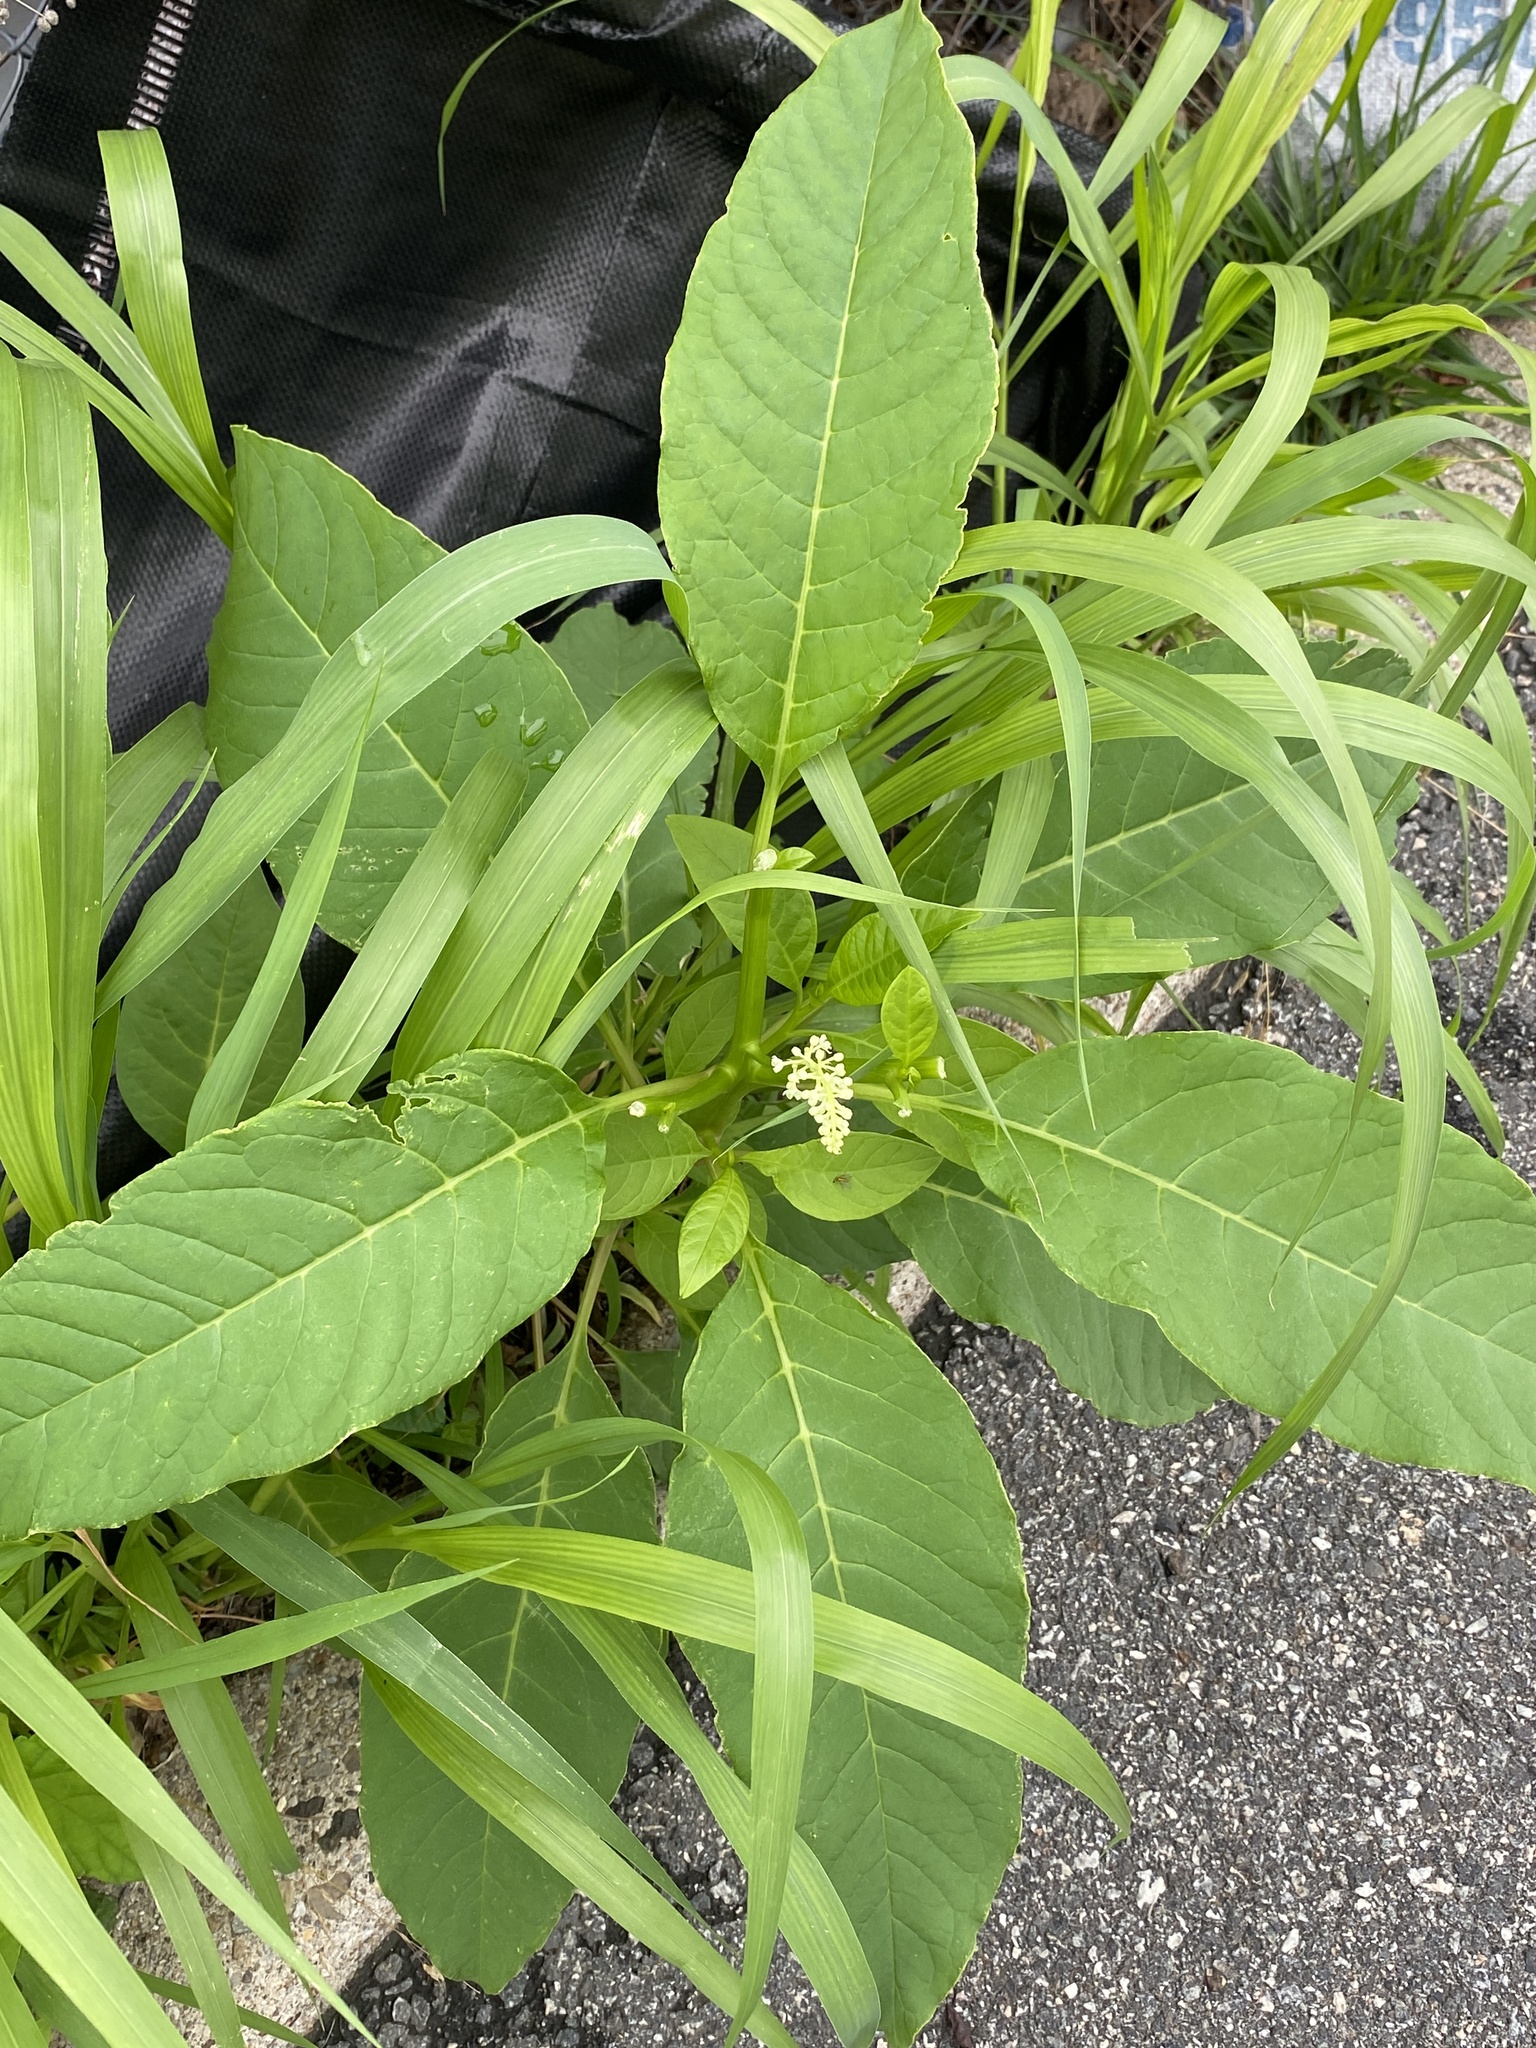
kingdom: Plantae
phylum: Tracheophyta
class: Magnoliopsida
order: Caryophyllales
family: Phytolaccaceae
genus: Phytolacca
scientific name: Phytolacca americana
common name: American pokeweed
